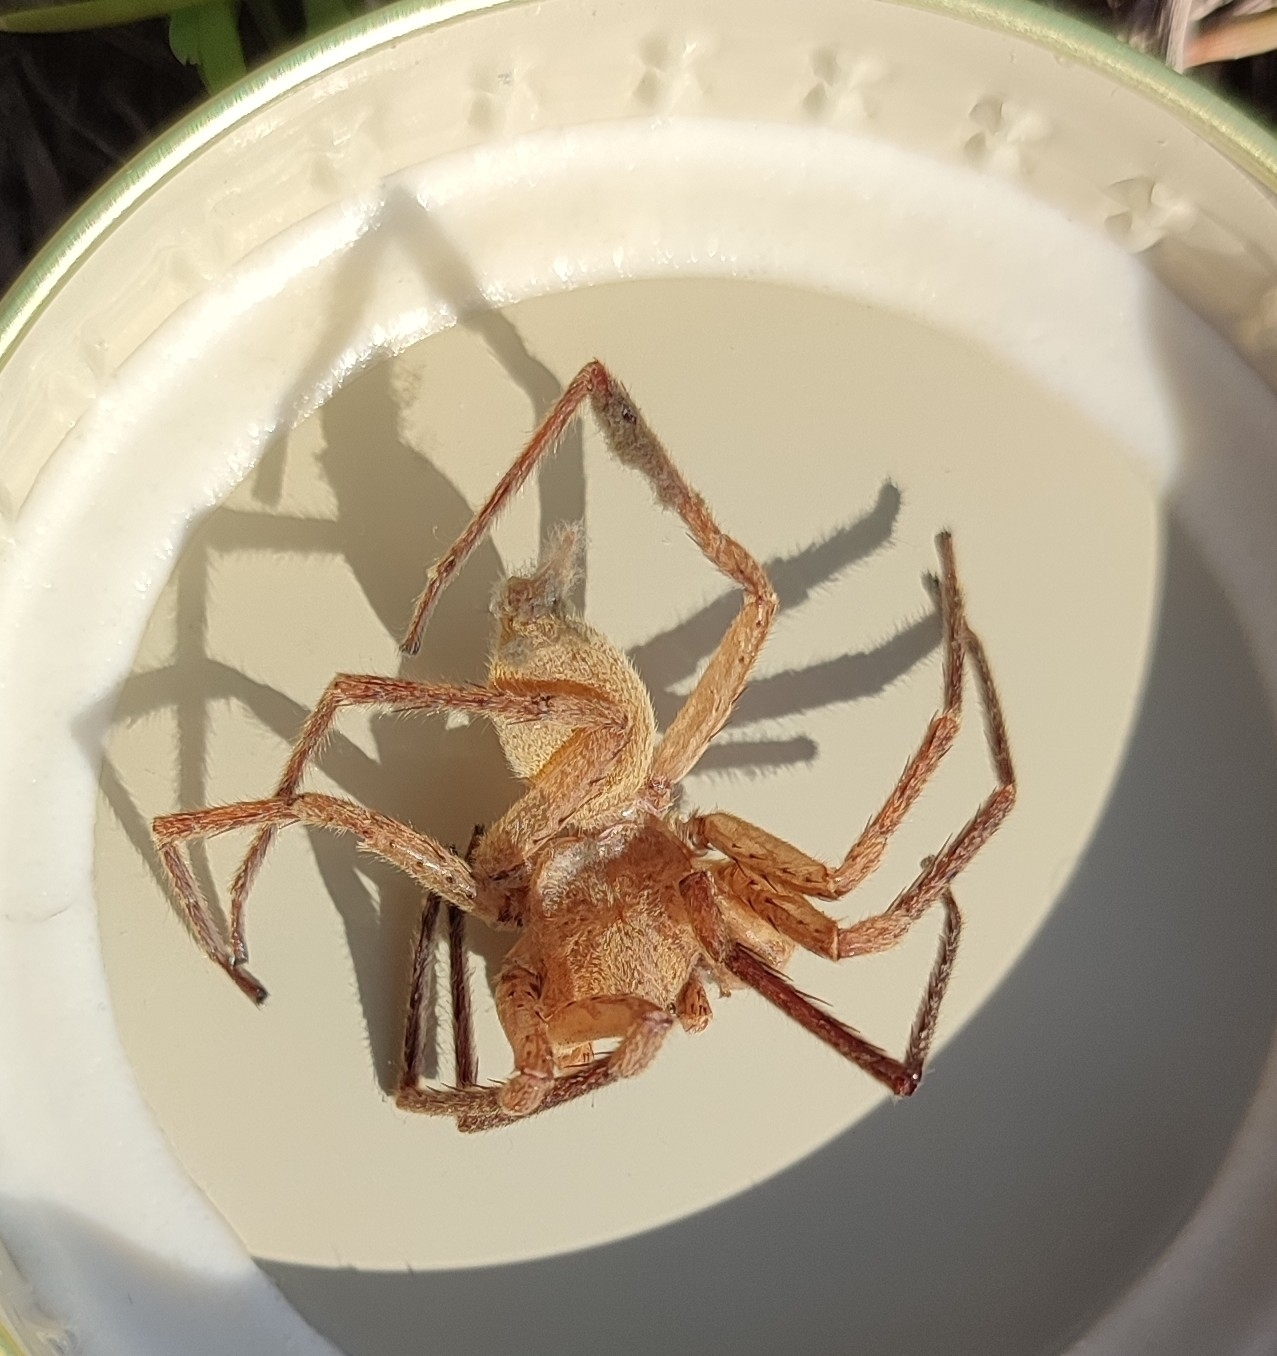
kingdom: Animalia
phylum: Arthropoda
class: Arachnida
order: Araneae
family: Sparassidae
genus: Olios
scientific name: Olios argelasius
